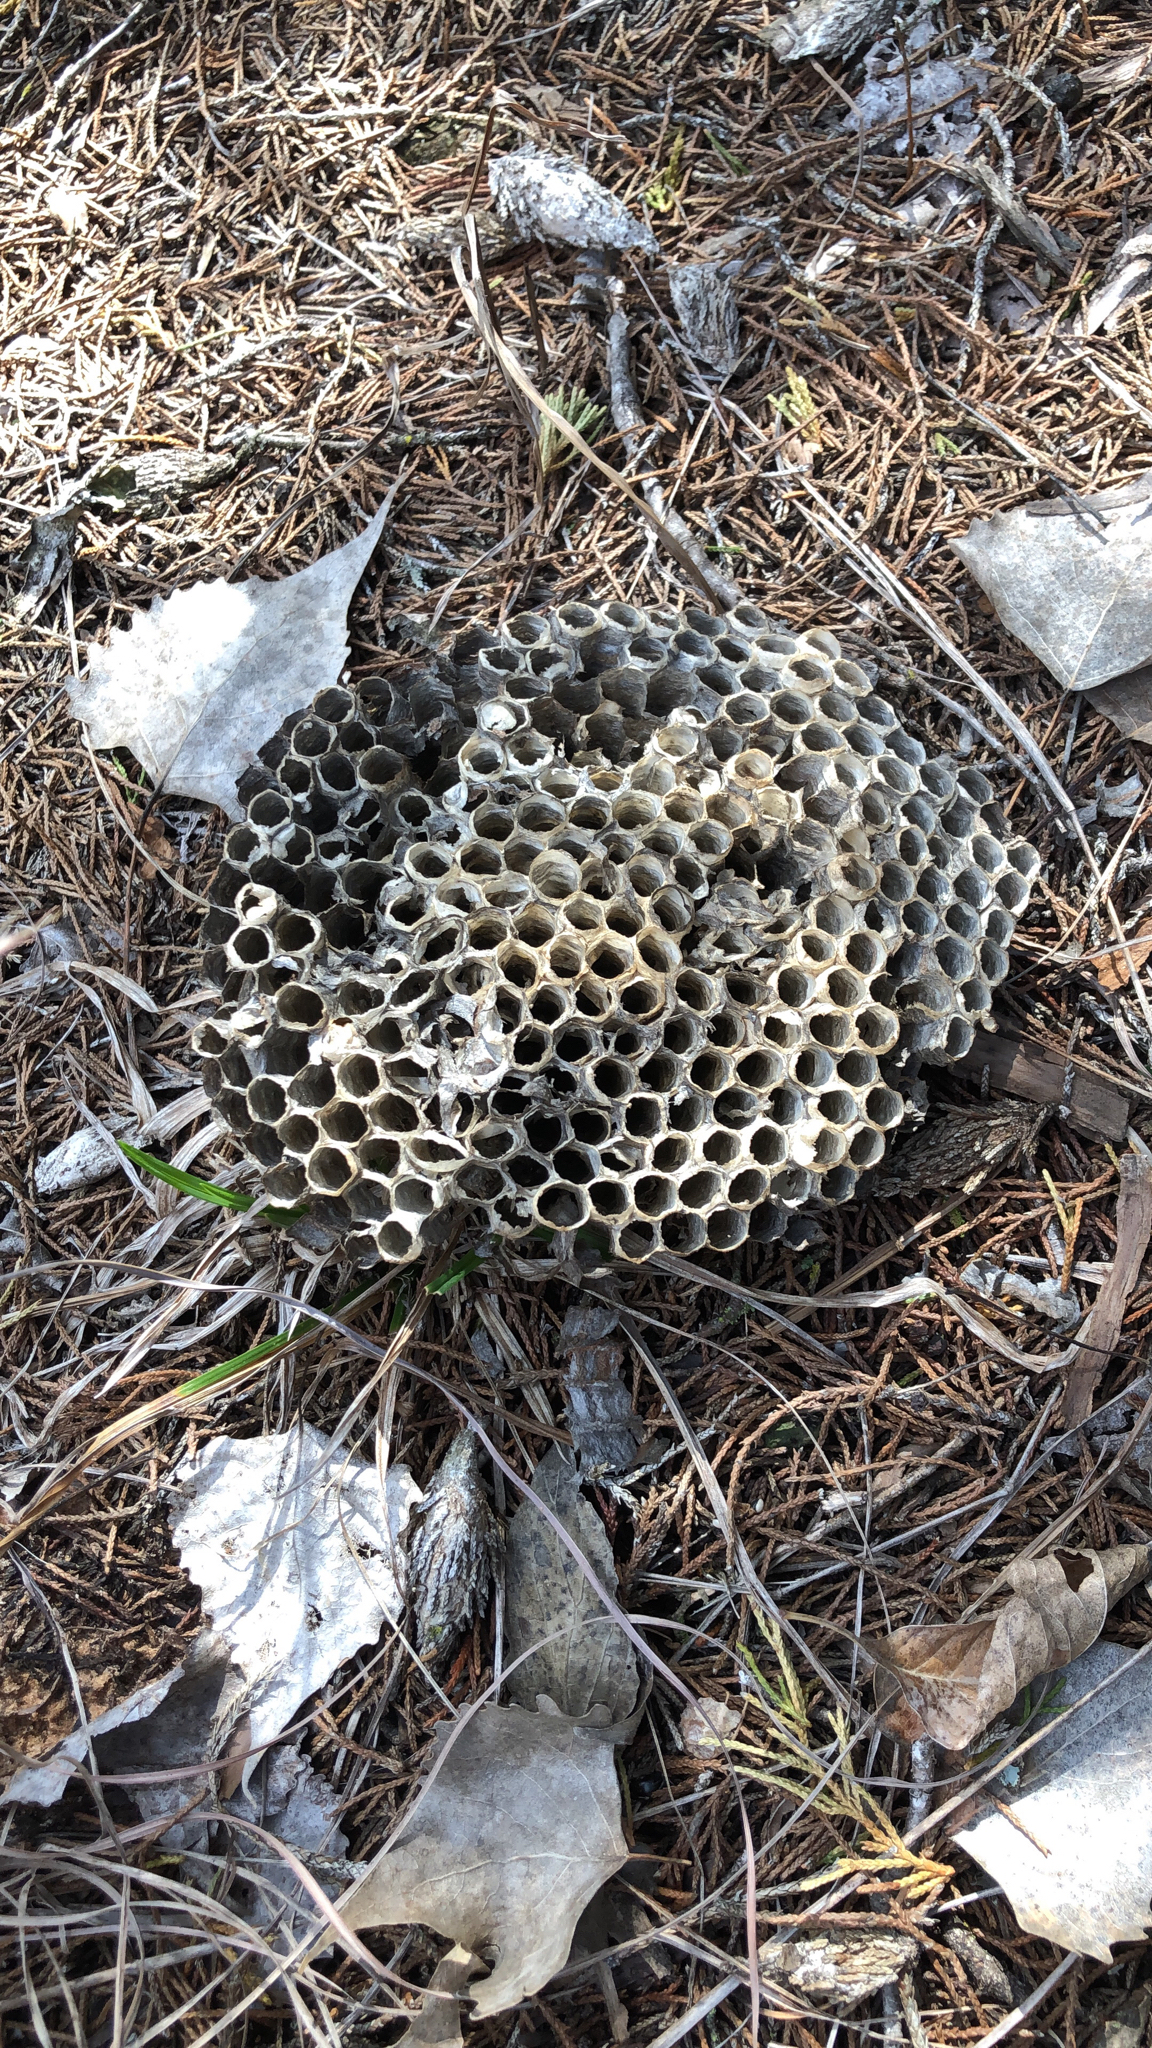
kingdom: Animalia
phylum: Arthropoda
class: Insecta
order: Hymenoptera
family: Vespidae
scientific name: Vespidae
